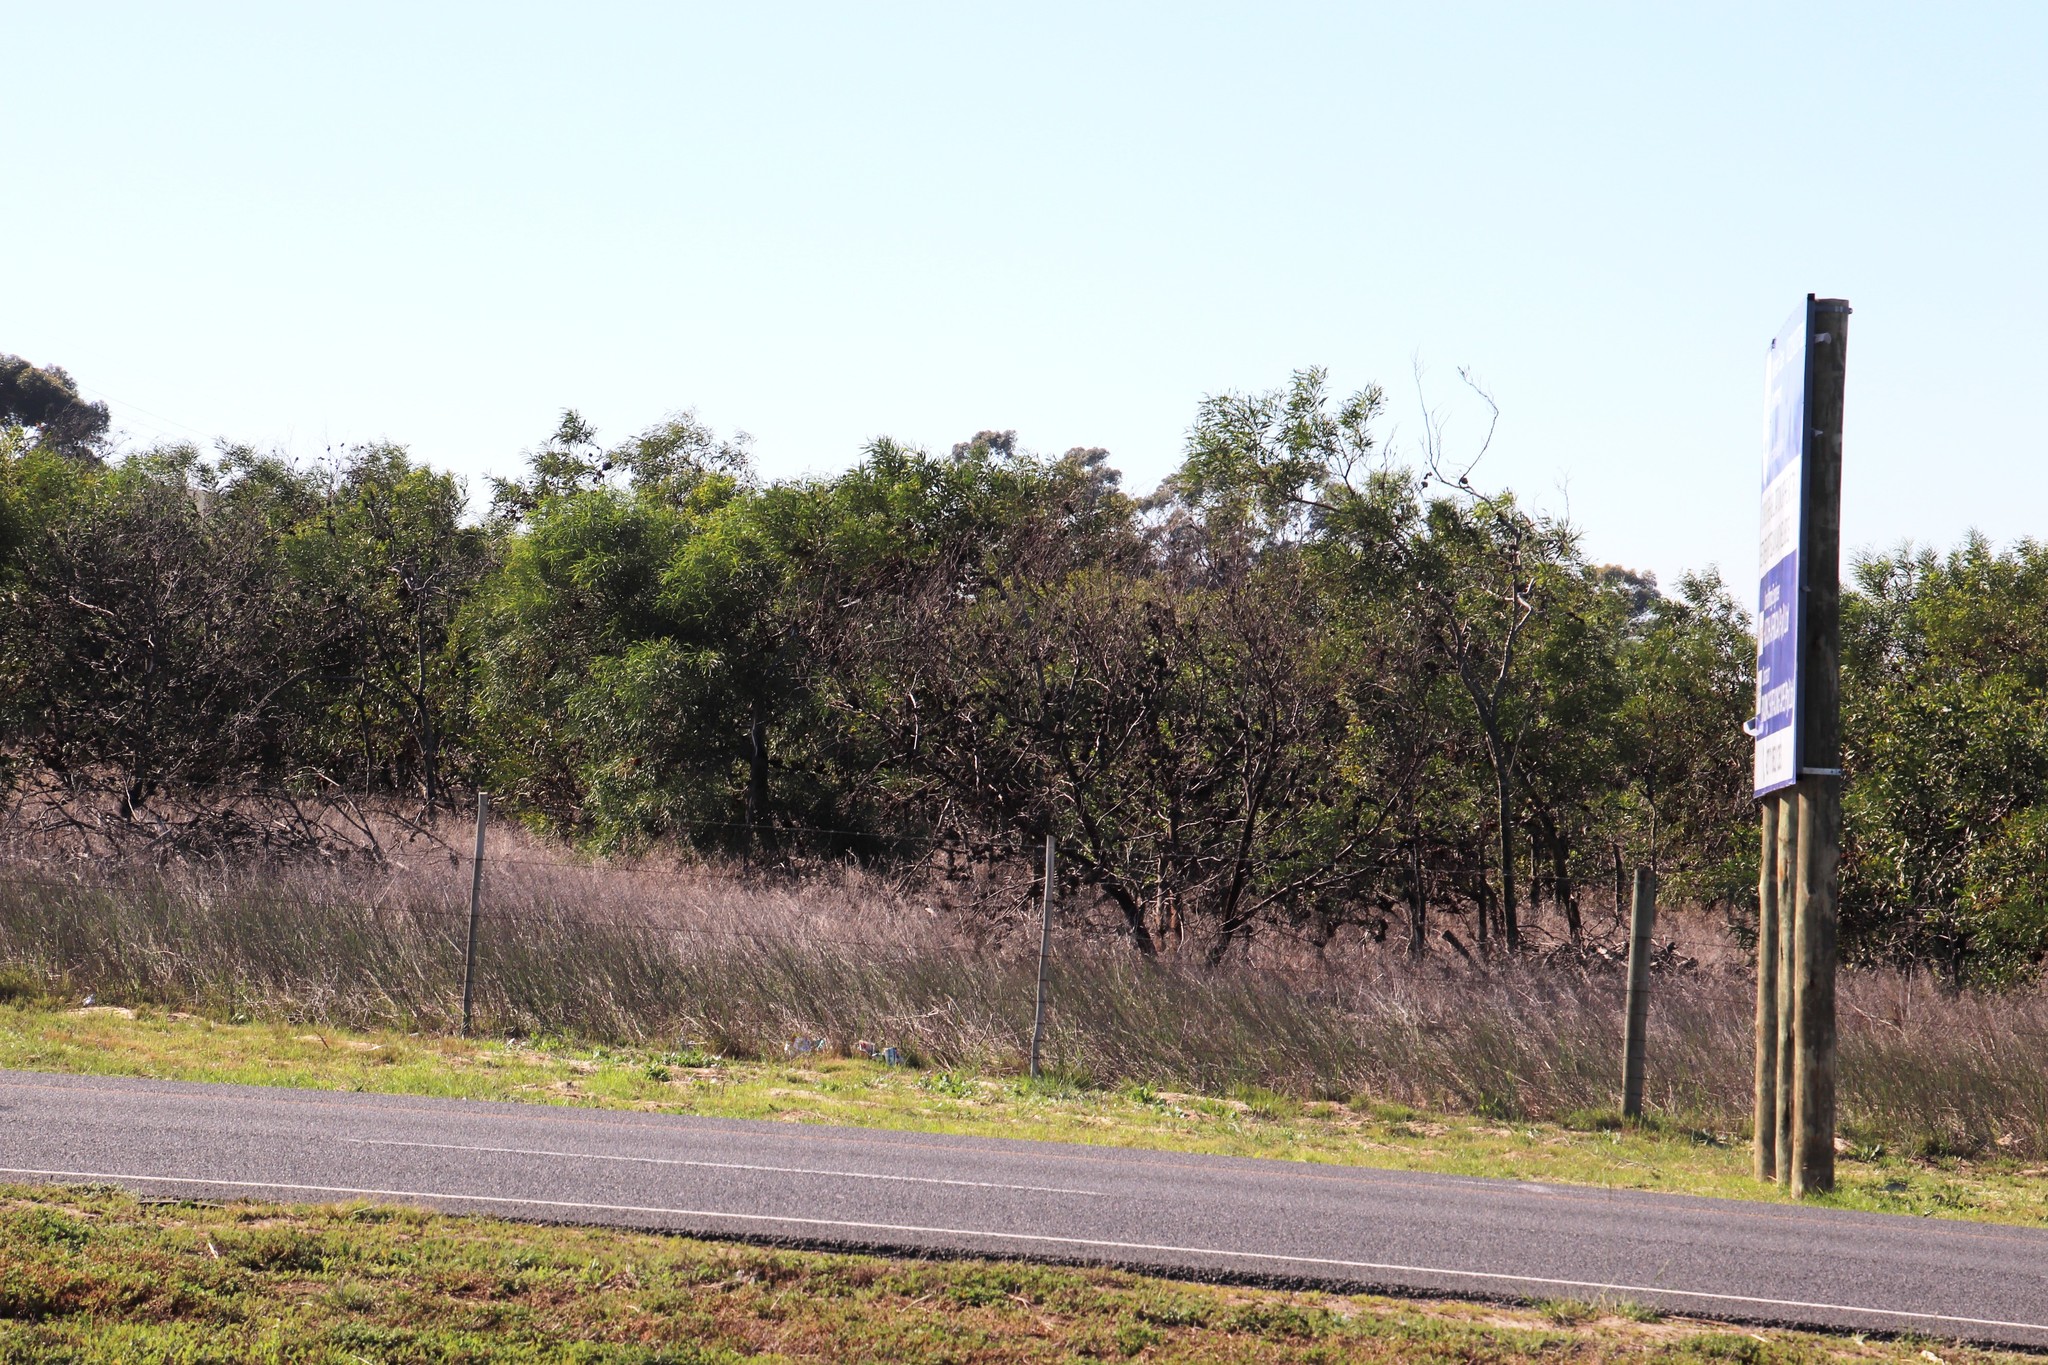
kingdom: Plantae
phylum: Tracheophyta
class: Magnoliopsida
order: Fabales
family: Fabaceae
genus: Acacia
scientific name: Acacia saligna
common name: Orange wattle
